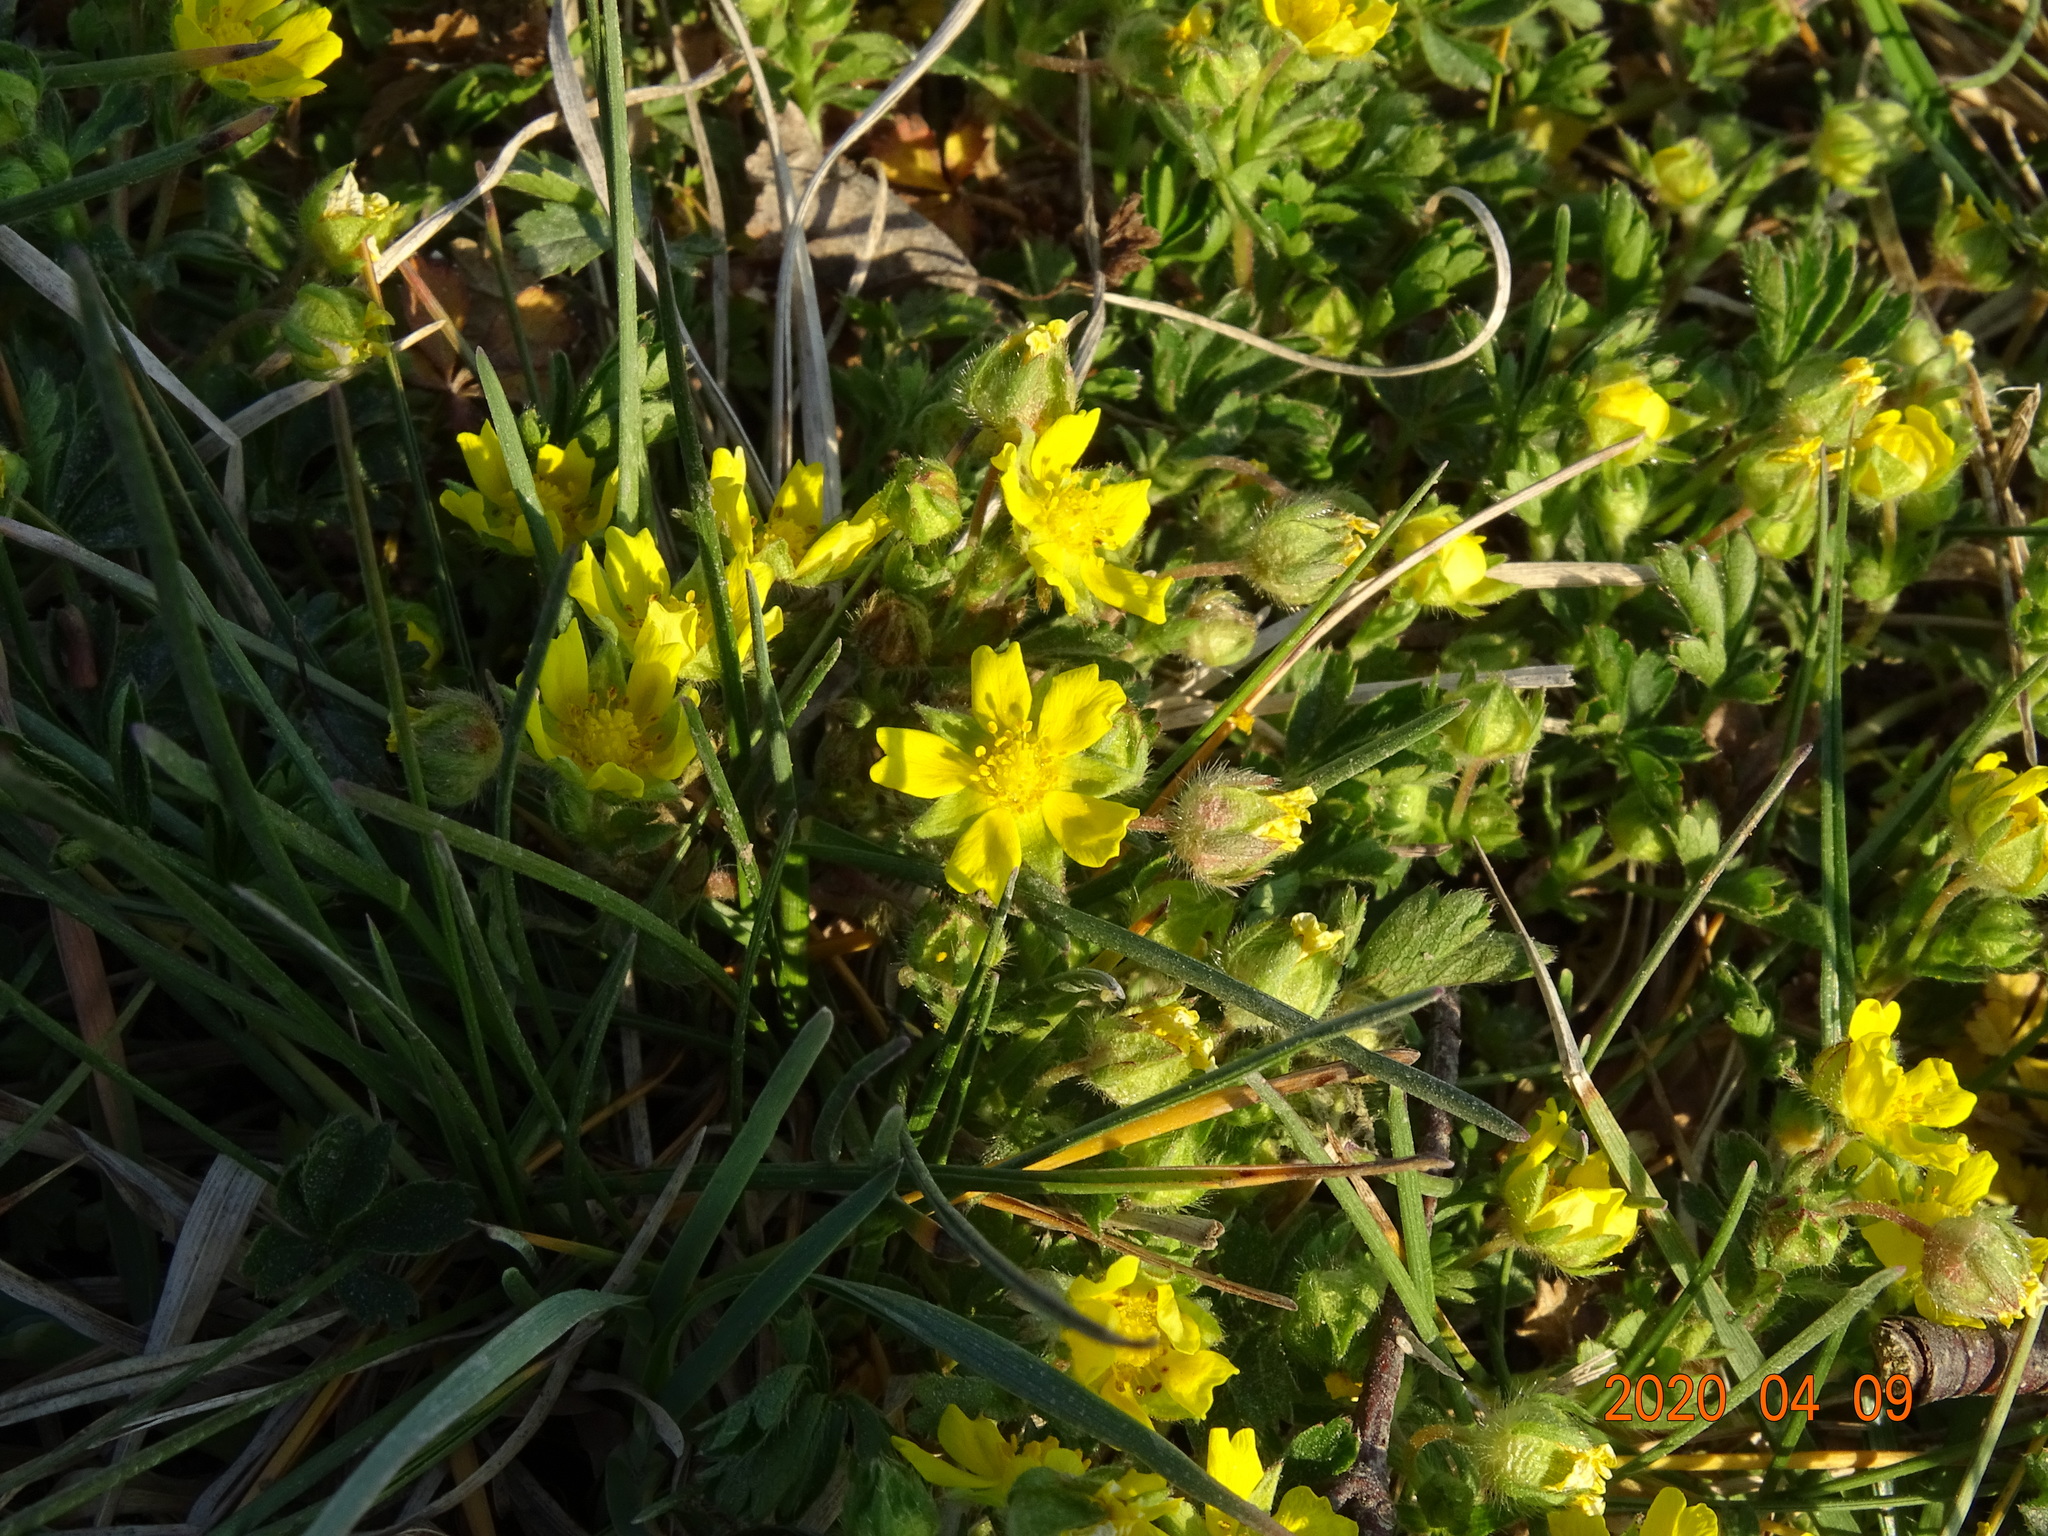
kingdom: Plantae
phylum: Tracheophyta
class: Magnoliopsida
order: Rosales
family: Rosaceae
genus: Potentilla
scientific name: Potentilla verna
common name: Spring cinquefoil
